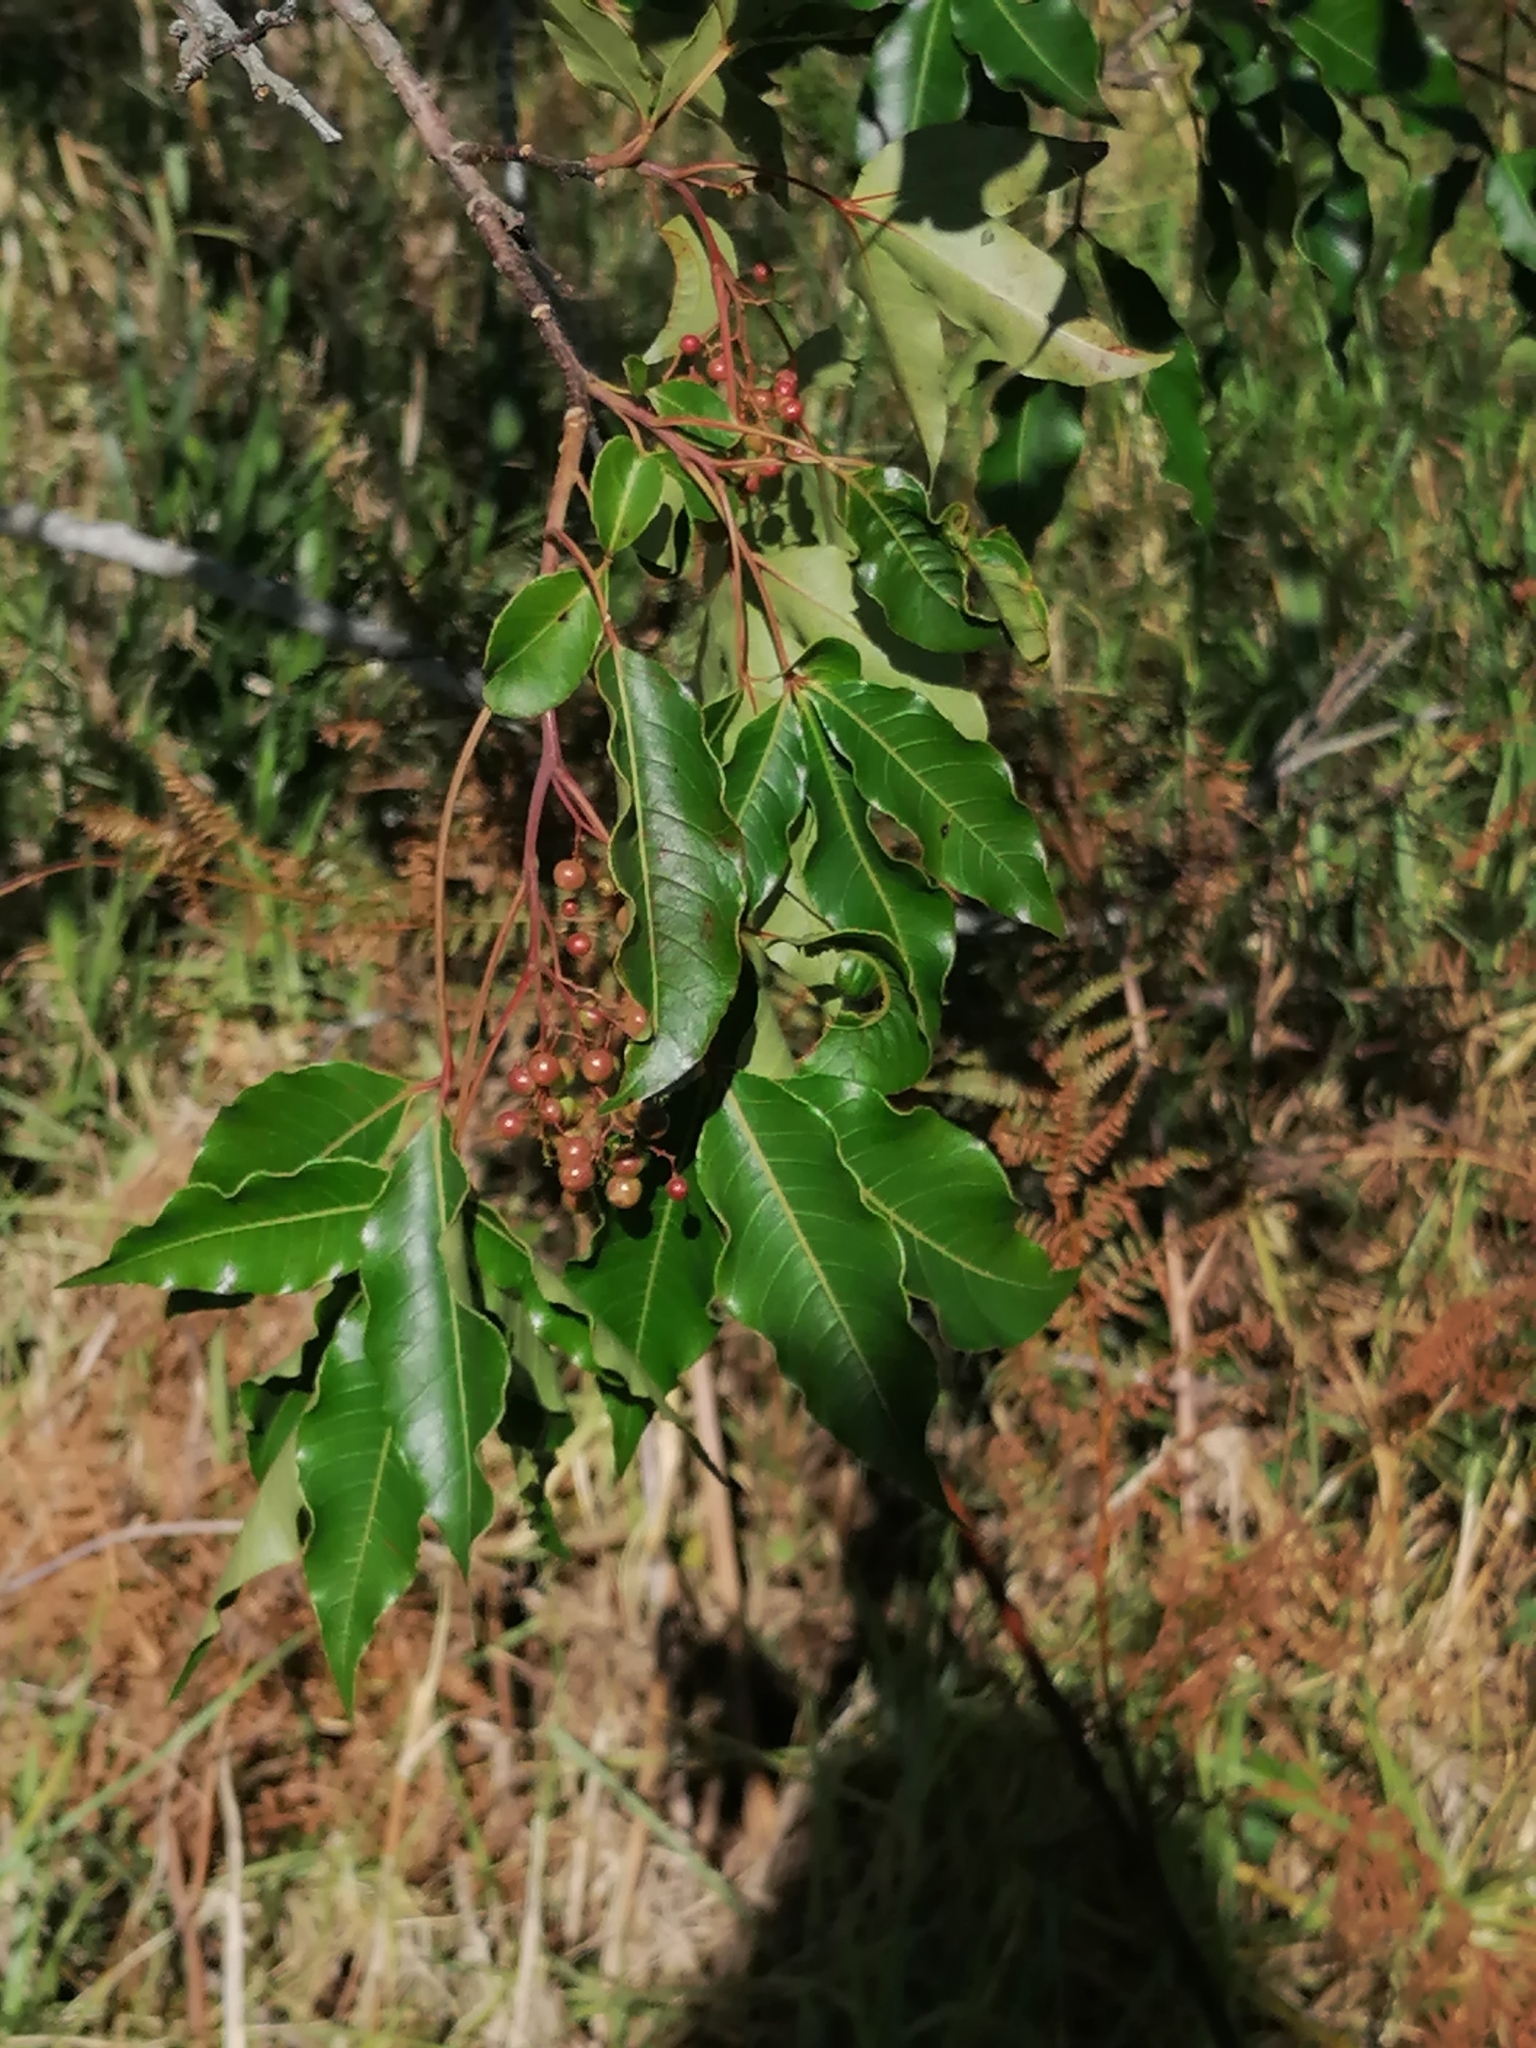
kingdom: Plantae
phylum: Tracheophyta
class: Magnoliopsida
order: Sapindales
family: Anacardiaceae
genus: Searsia
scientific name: Searsia chirindensis
